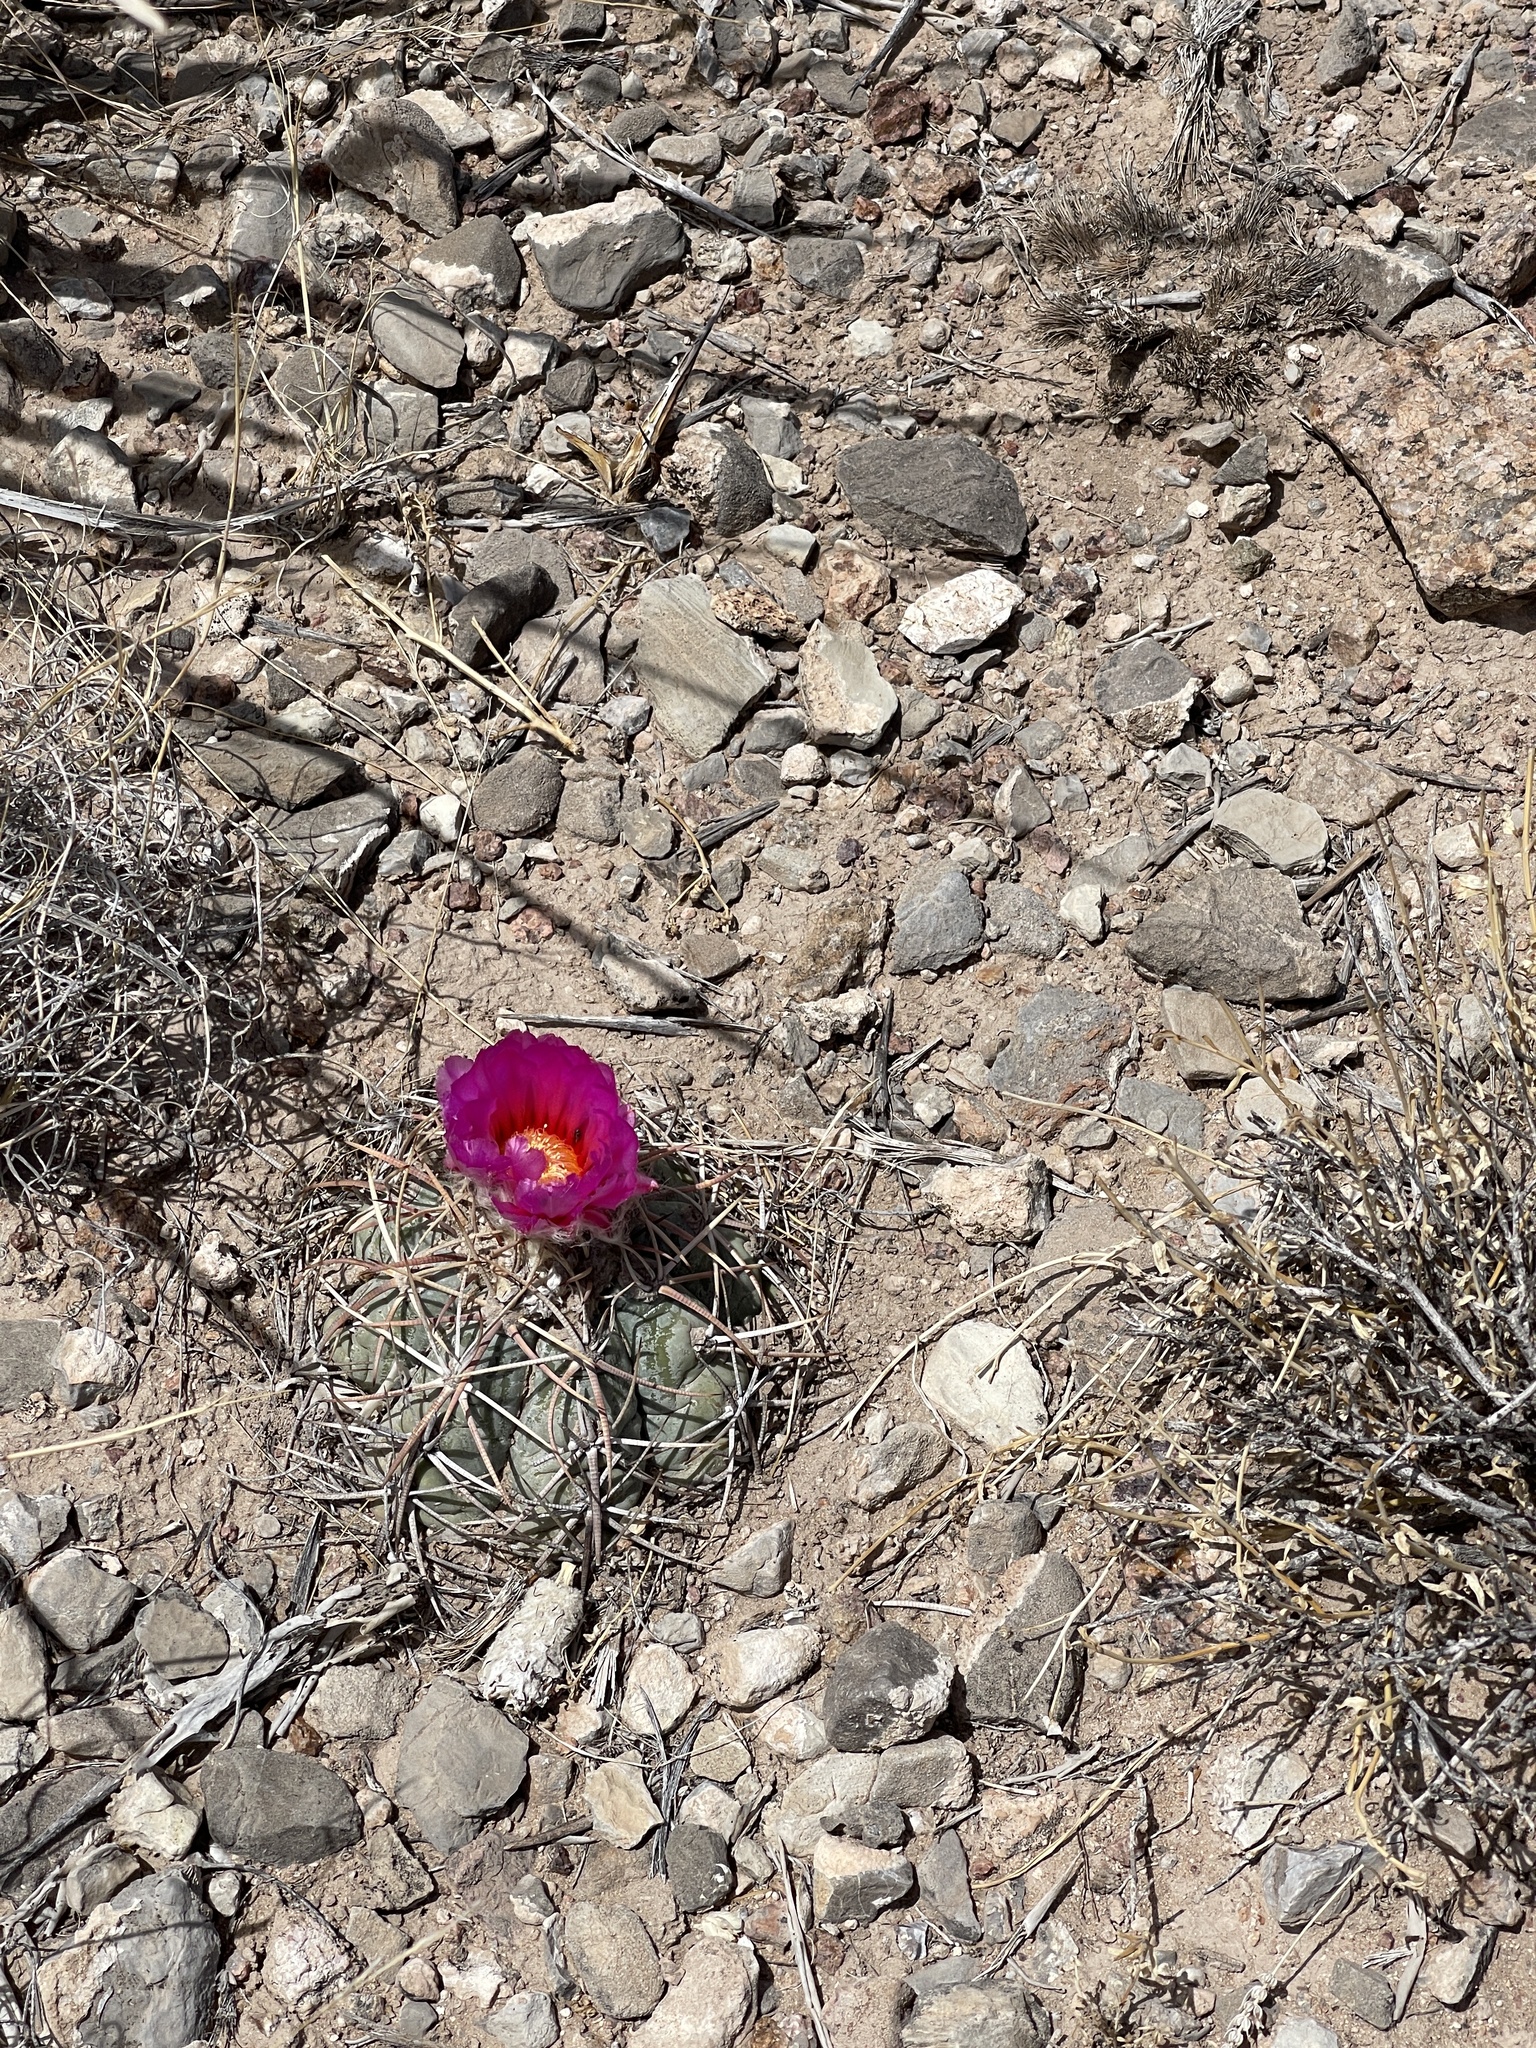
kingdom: Plantae
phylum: Tracheophyta
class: Magnoliopsida
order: Caryophyllales
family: Cactaceae
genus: Echinocactus
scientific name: Echinocactus horizonthalonius
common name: Devilshead
